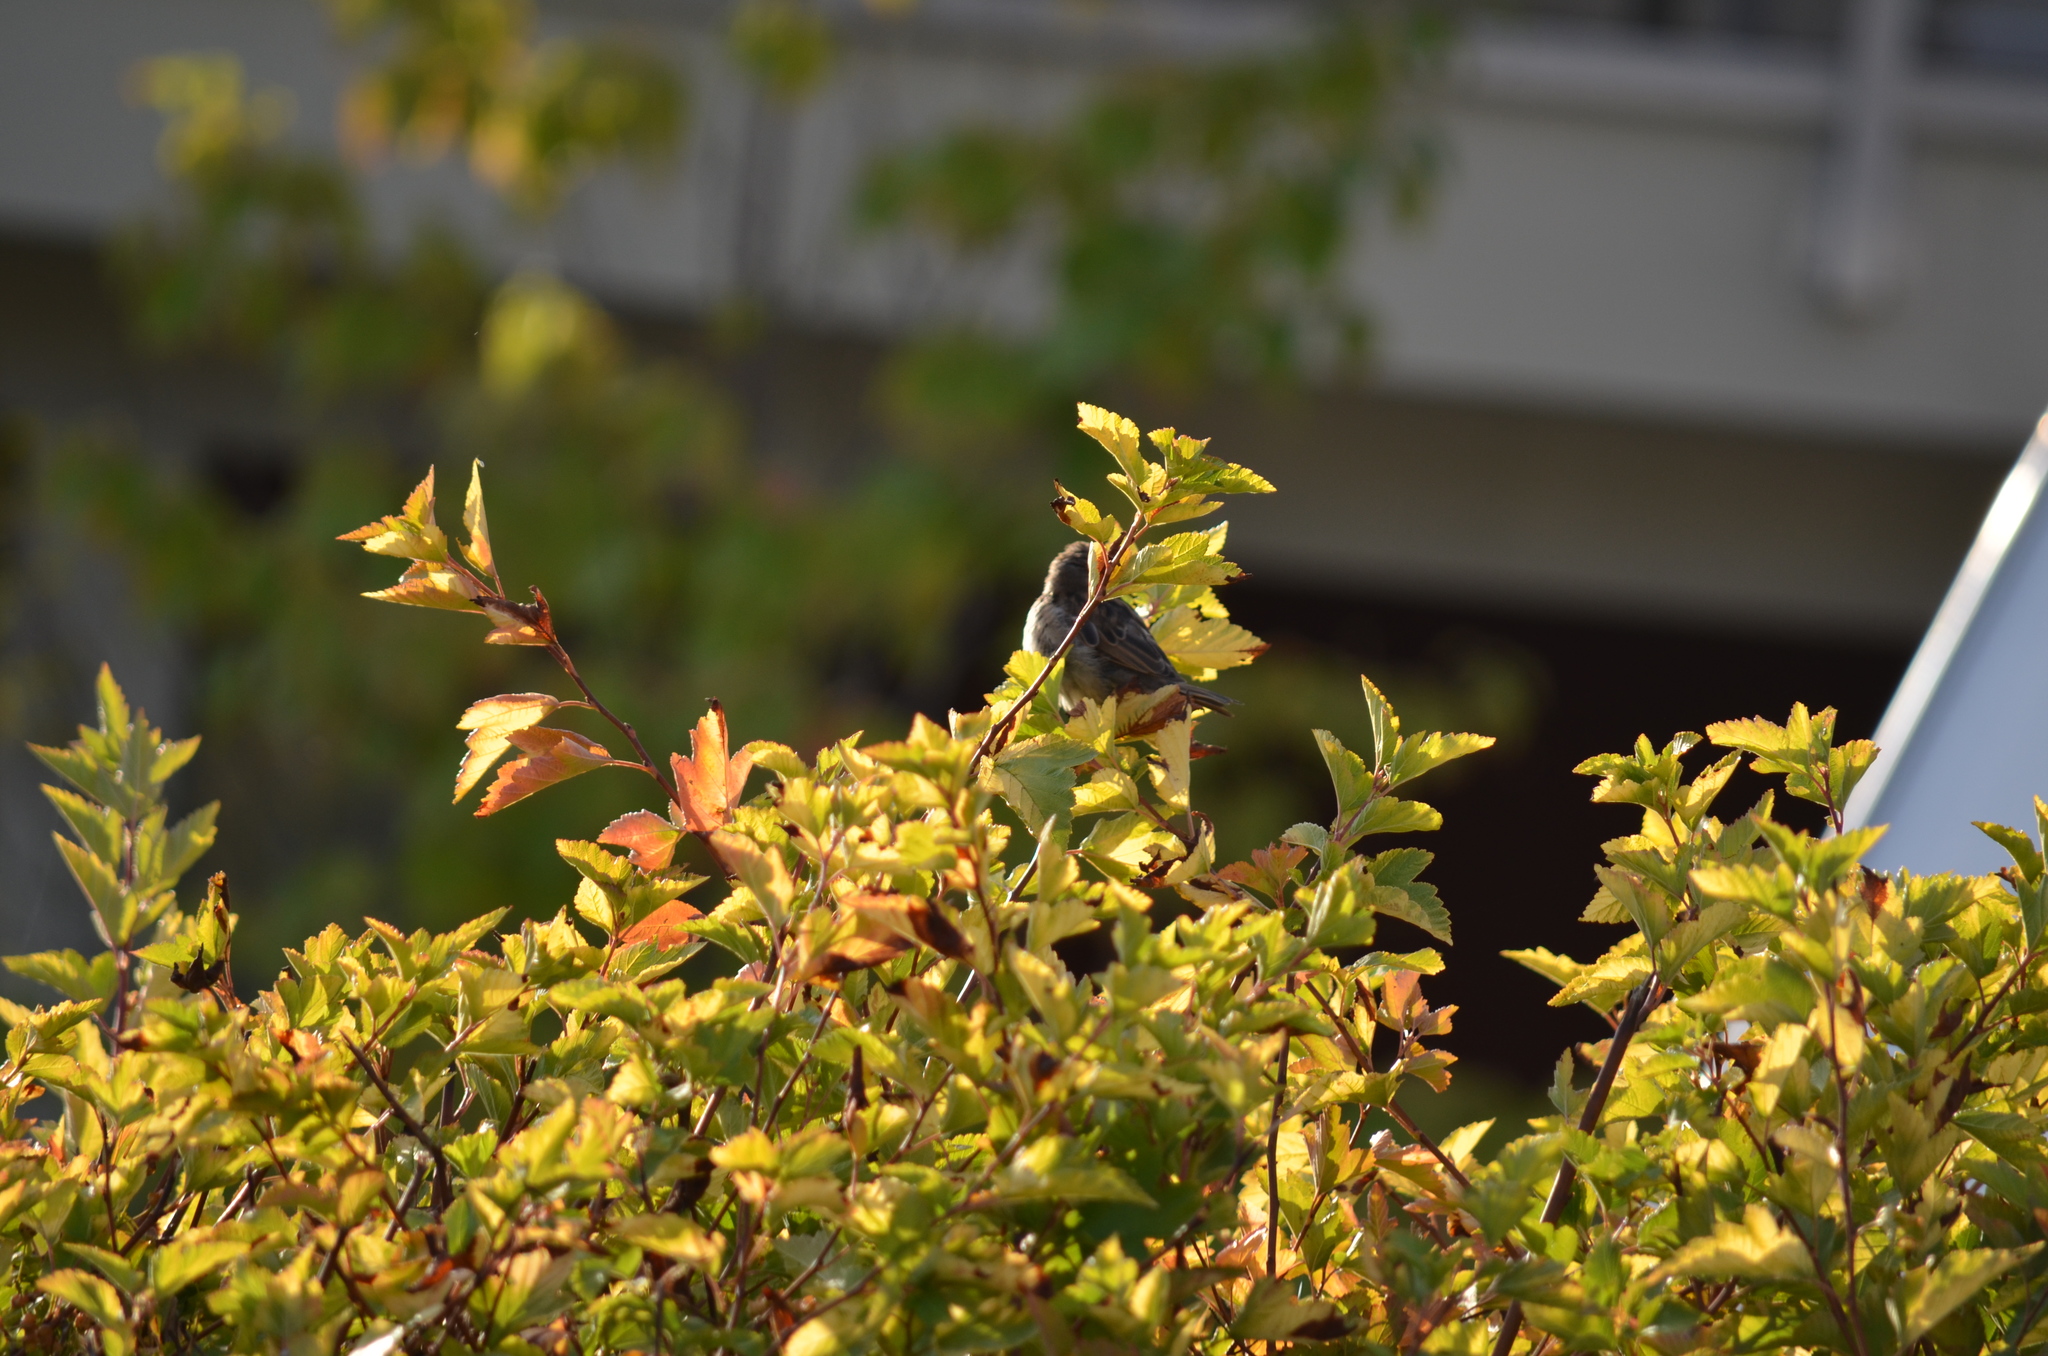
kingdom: Animalia
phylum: Chordata
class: Aves
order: Passeriformes
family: Passeridae
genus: Passer
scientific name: Passer domesticus
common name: House sparrow
